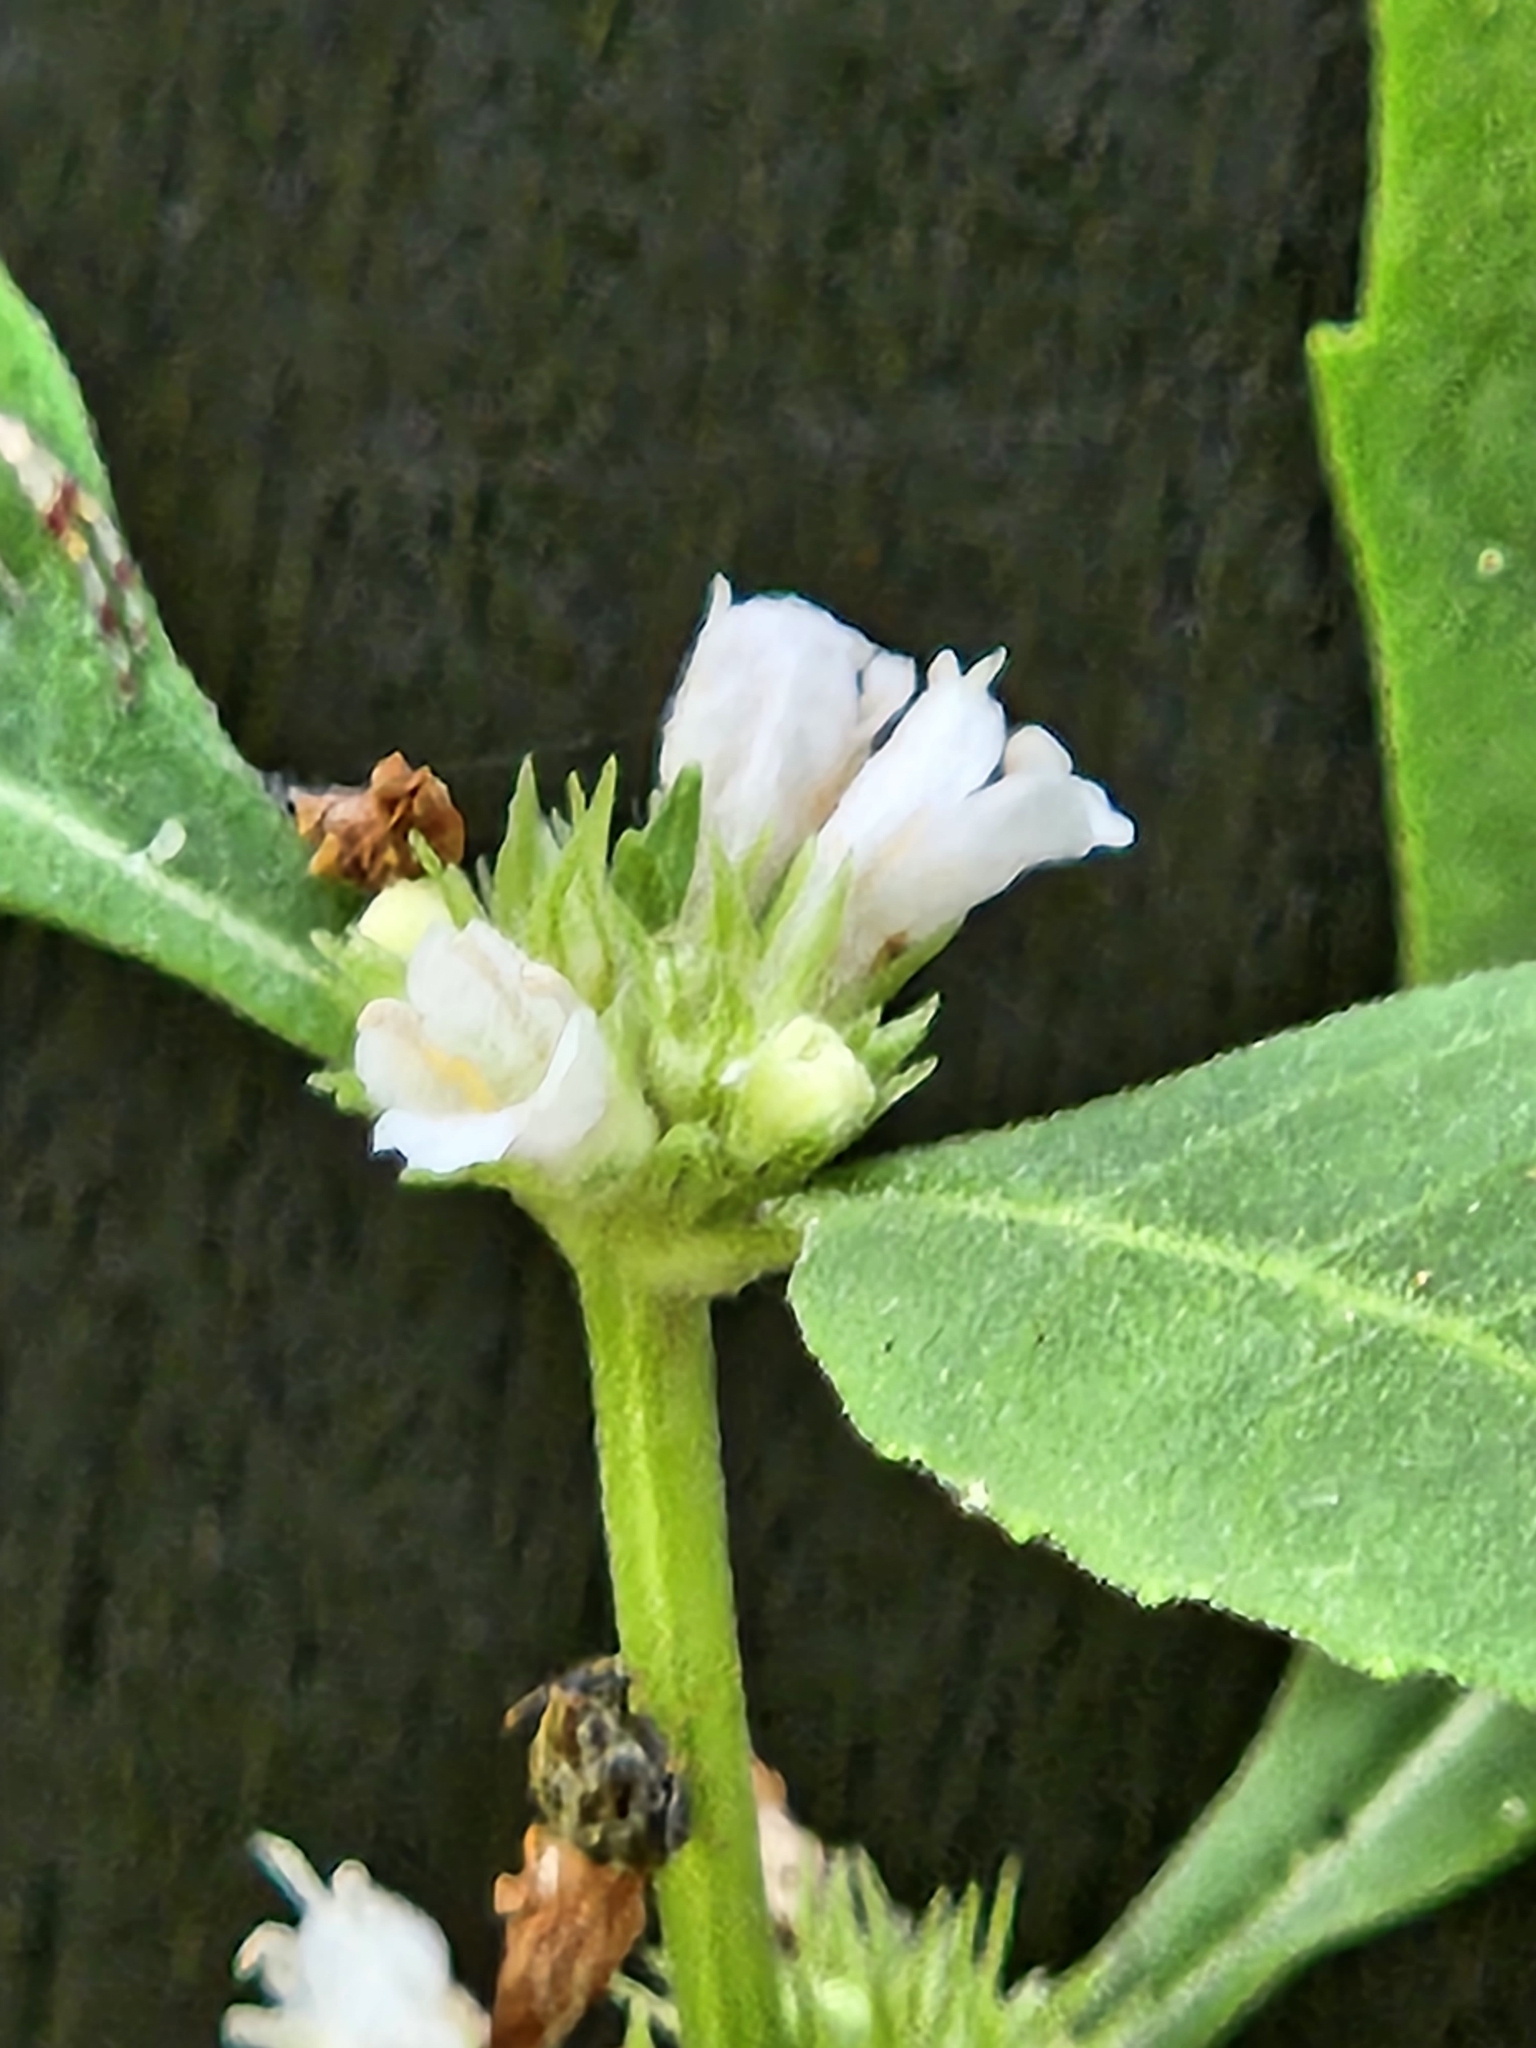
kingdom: Plantae
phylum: Tracheophyta
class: Magnoliopsida
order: Lamiales
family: Lamiaceae
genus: Lycopus
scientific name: Lycopus rubellus
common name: Stalked bugleweed
